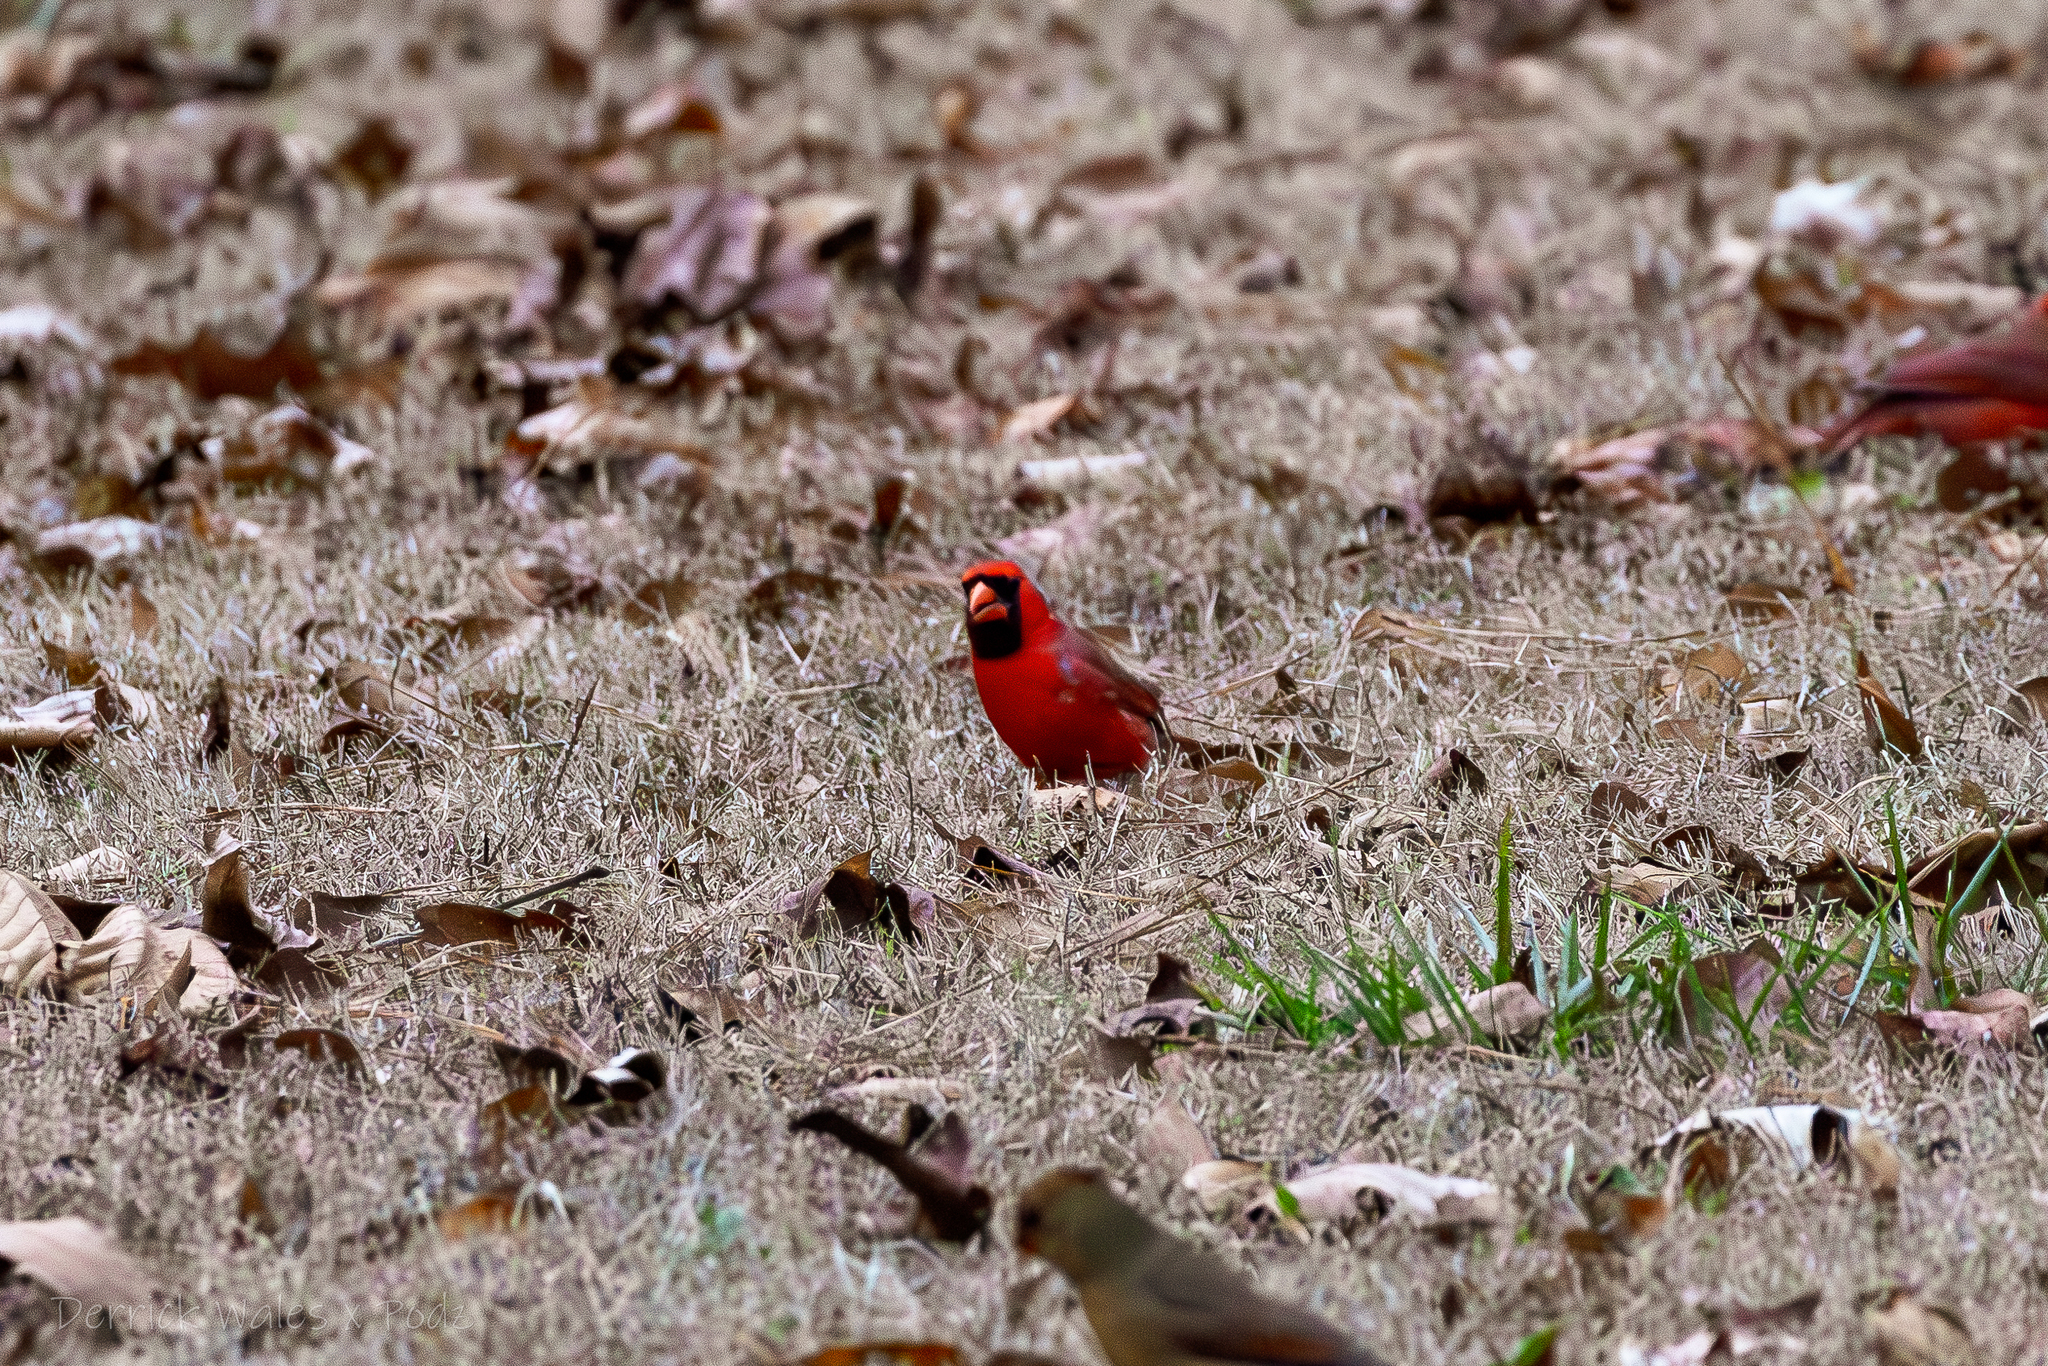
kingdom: Animalia
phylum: Chordata
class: Aves
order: Passeriformes
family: Cardinalidae
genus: Cardinalis
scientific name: Cardinalis cardinalis
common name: Northern cardinal
